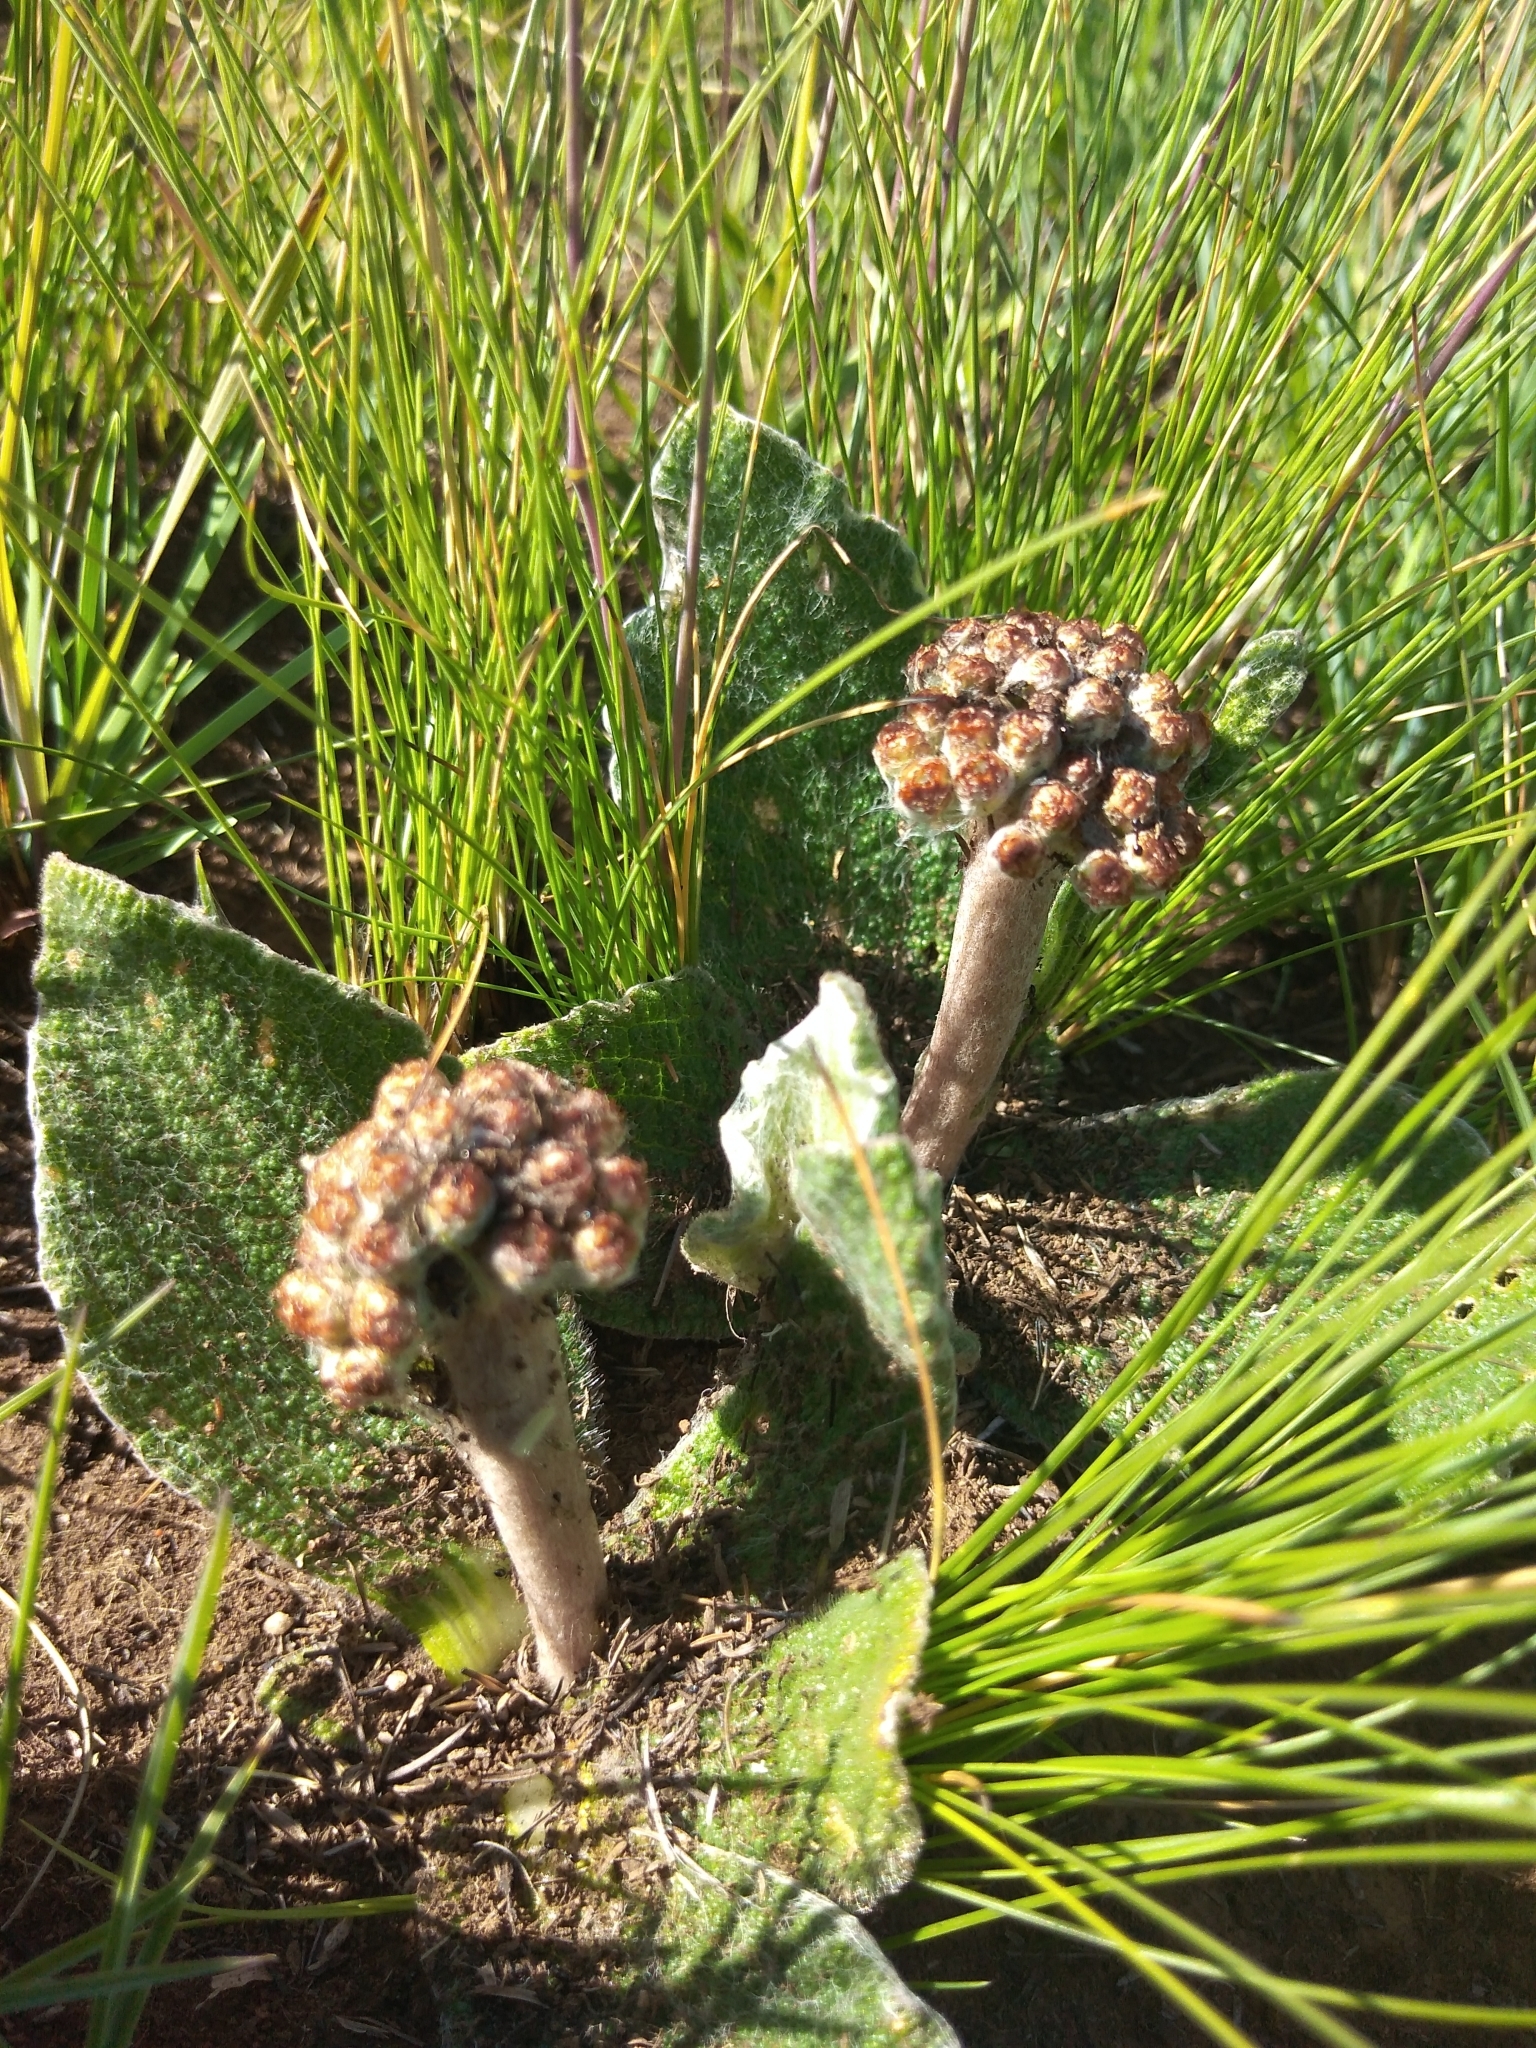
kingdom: Plantae
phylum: Tracheophyta
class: Magnoliopsida
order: Asterales
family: Asteraceae
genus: Helichrysum
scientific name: Helichrysum nudifolium
